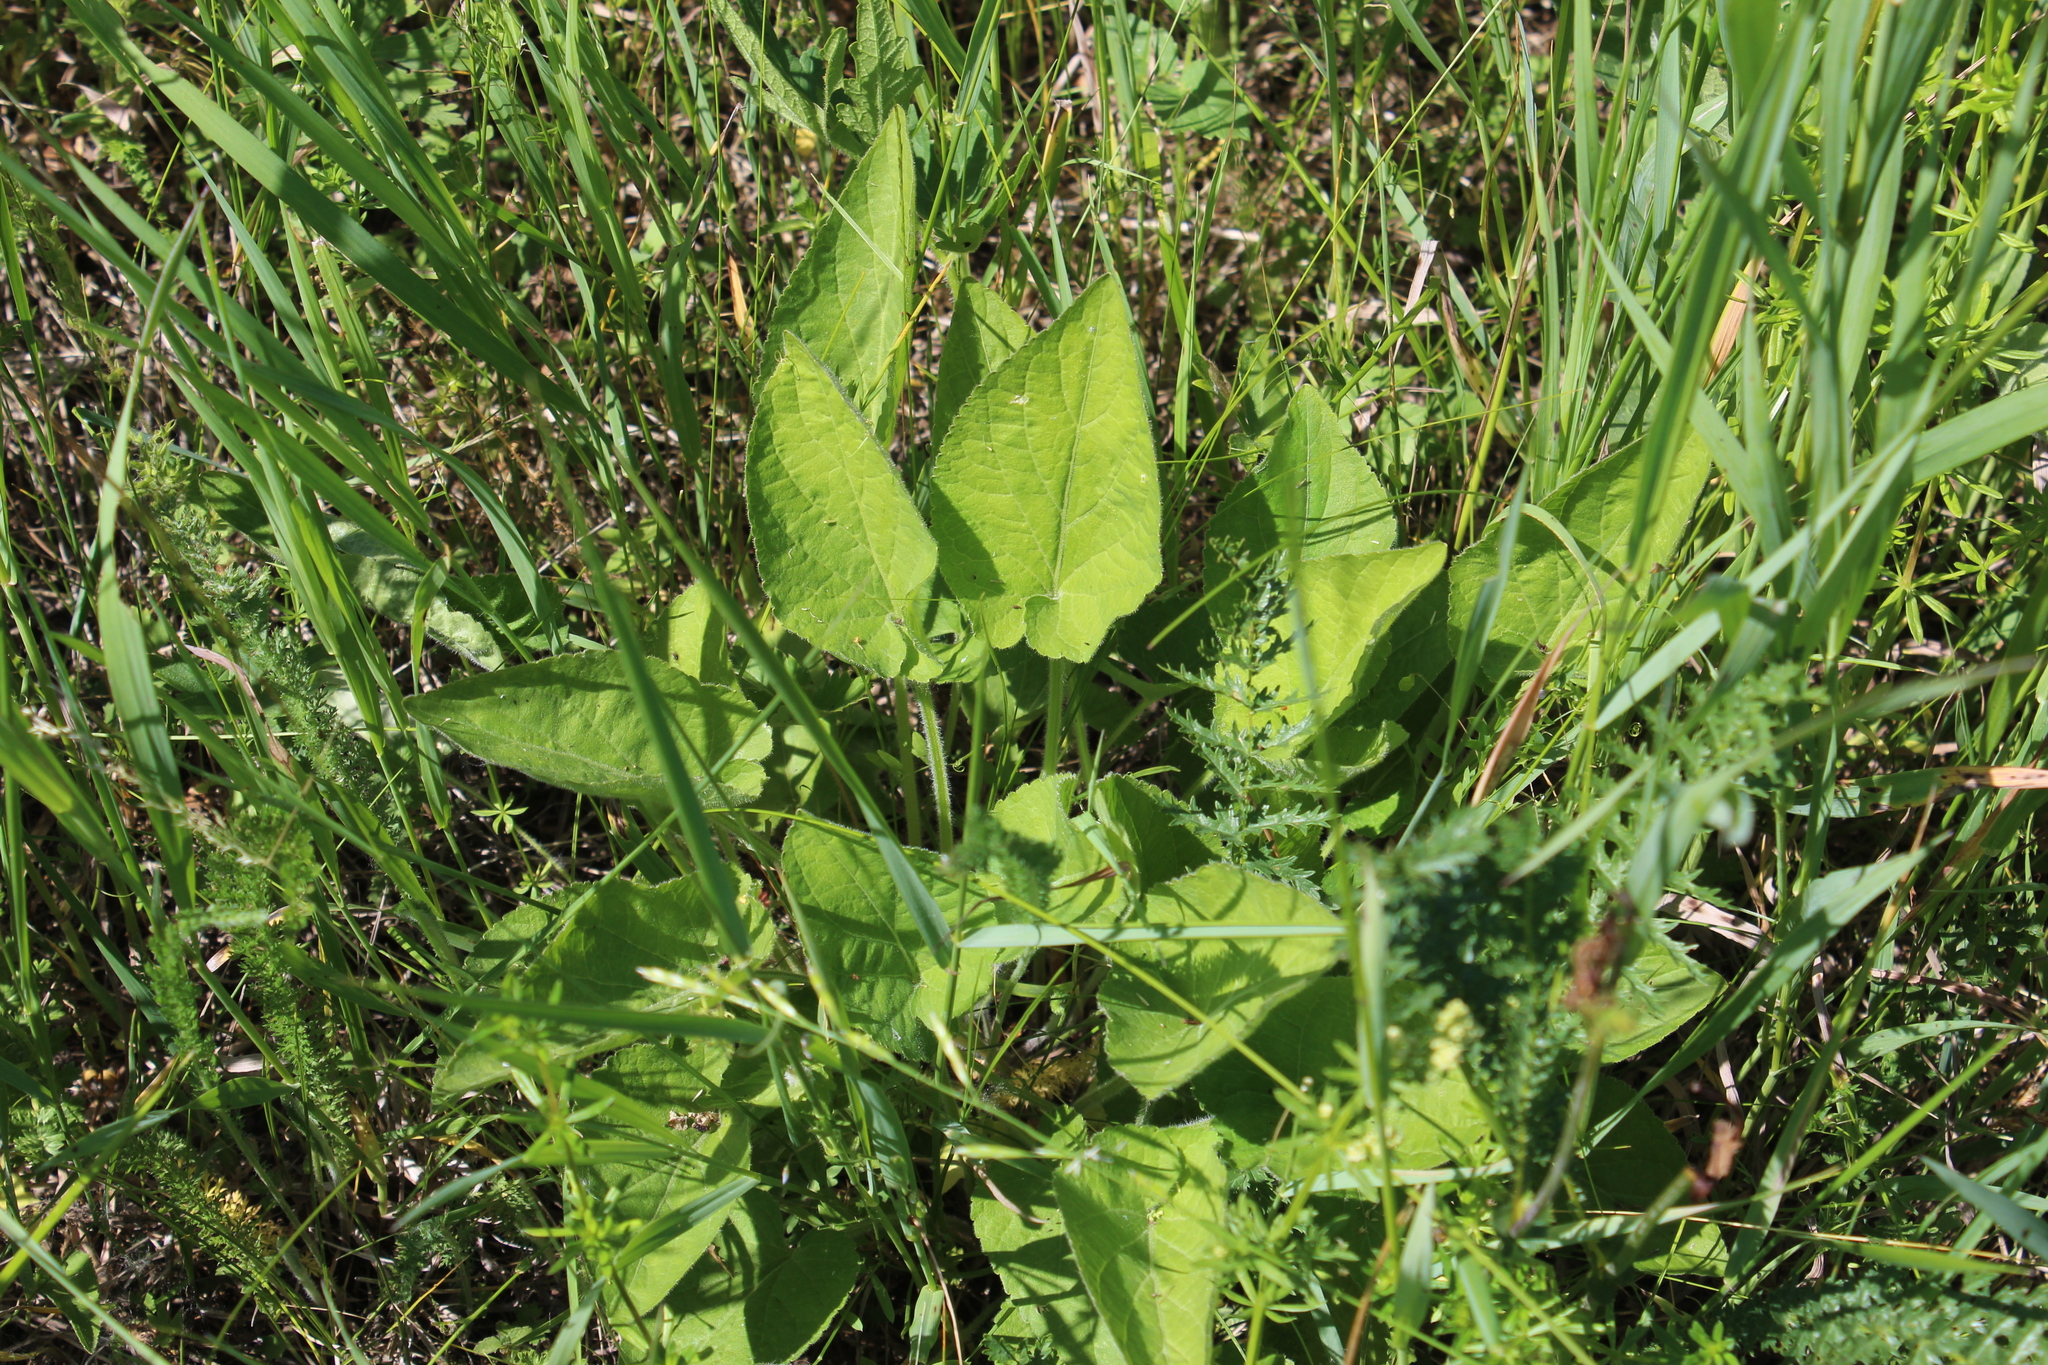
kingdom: Plantae
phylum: Tracheophyta
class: Magnoliopsida
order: Malpighiales
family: Violaceae
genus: Viola
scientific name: Viola hirta
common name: Hairy violet
